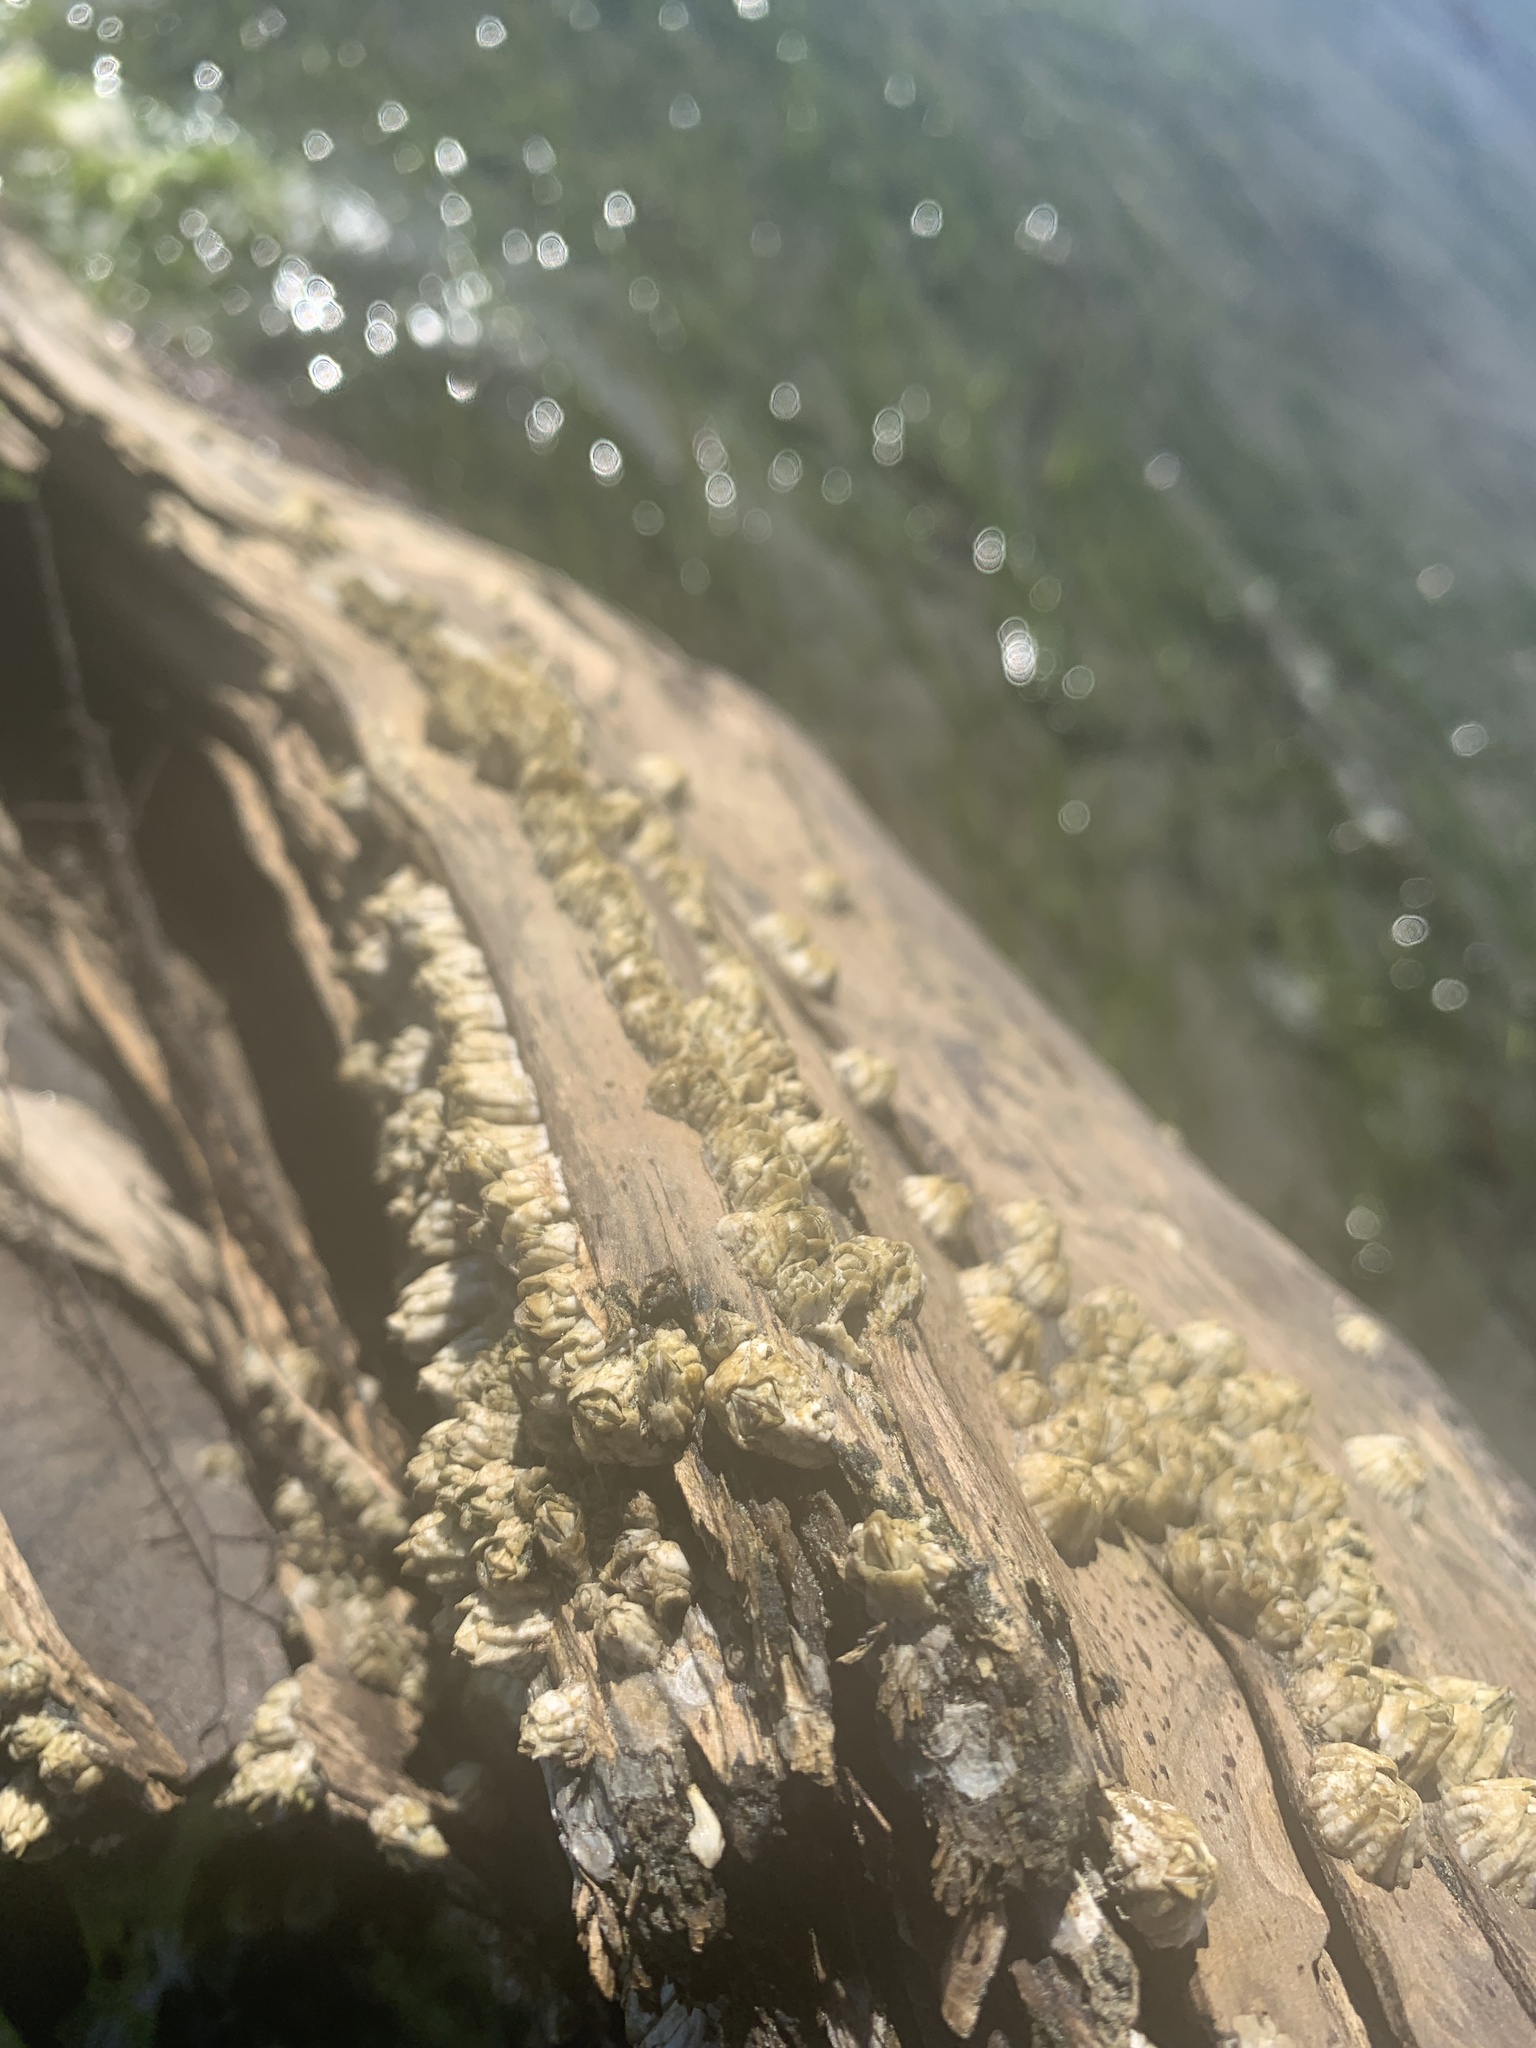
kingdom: Animalia
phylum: Arthropoda
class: Maxillopoda
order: Sessilia
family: Balanidae
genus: Balanus
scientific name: Balanus glandula
